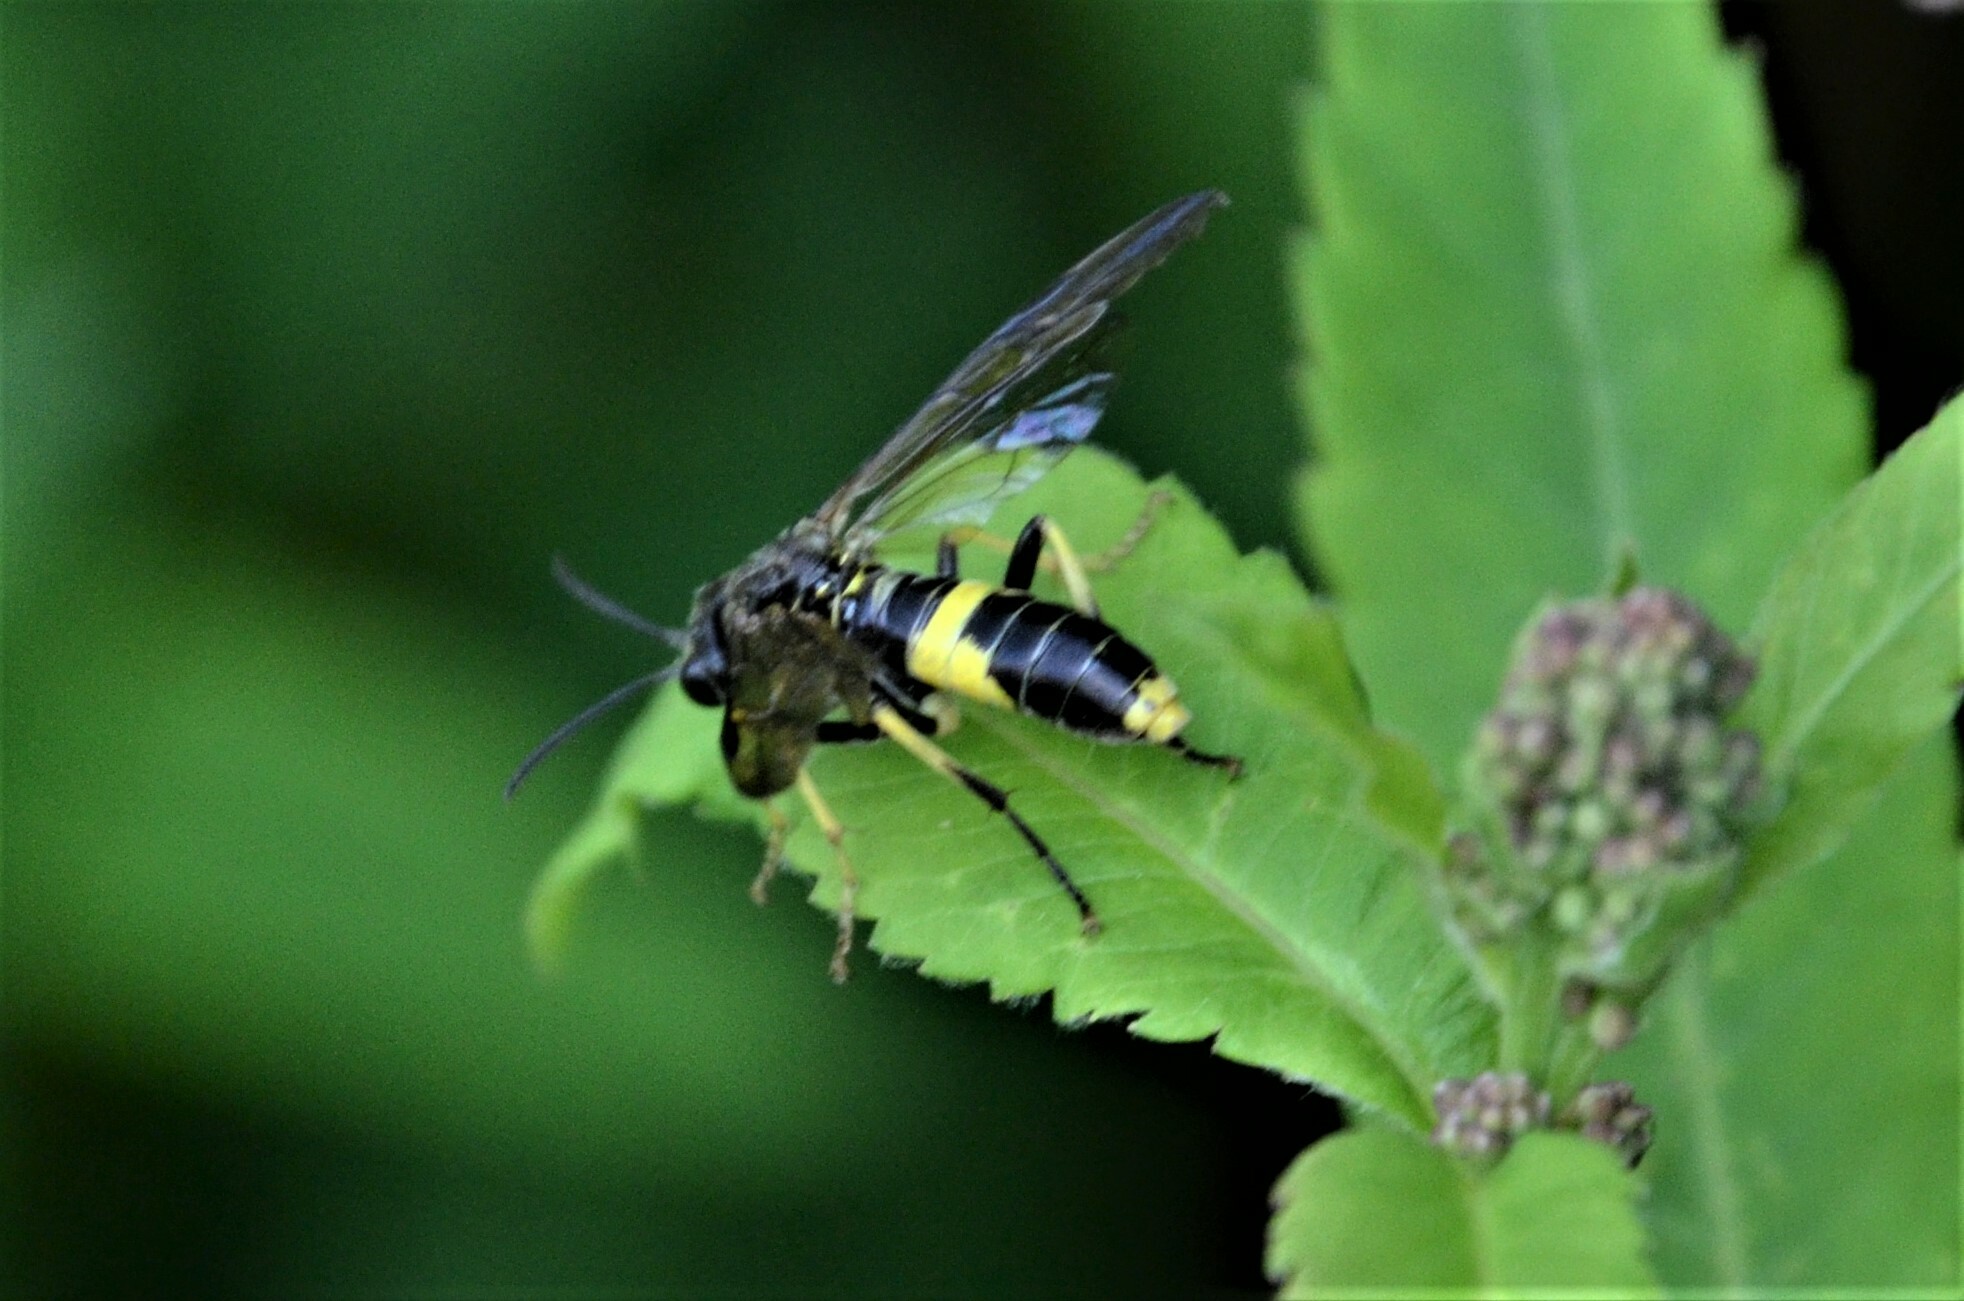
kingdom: Animalia
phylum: Arthropoda
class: Insecta
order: Hymenoptera
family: Tenthredinidae
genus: Tenthredo
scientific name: Tenthredo temula
